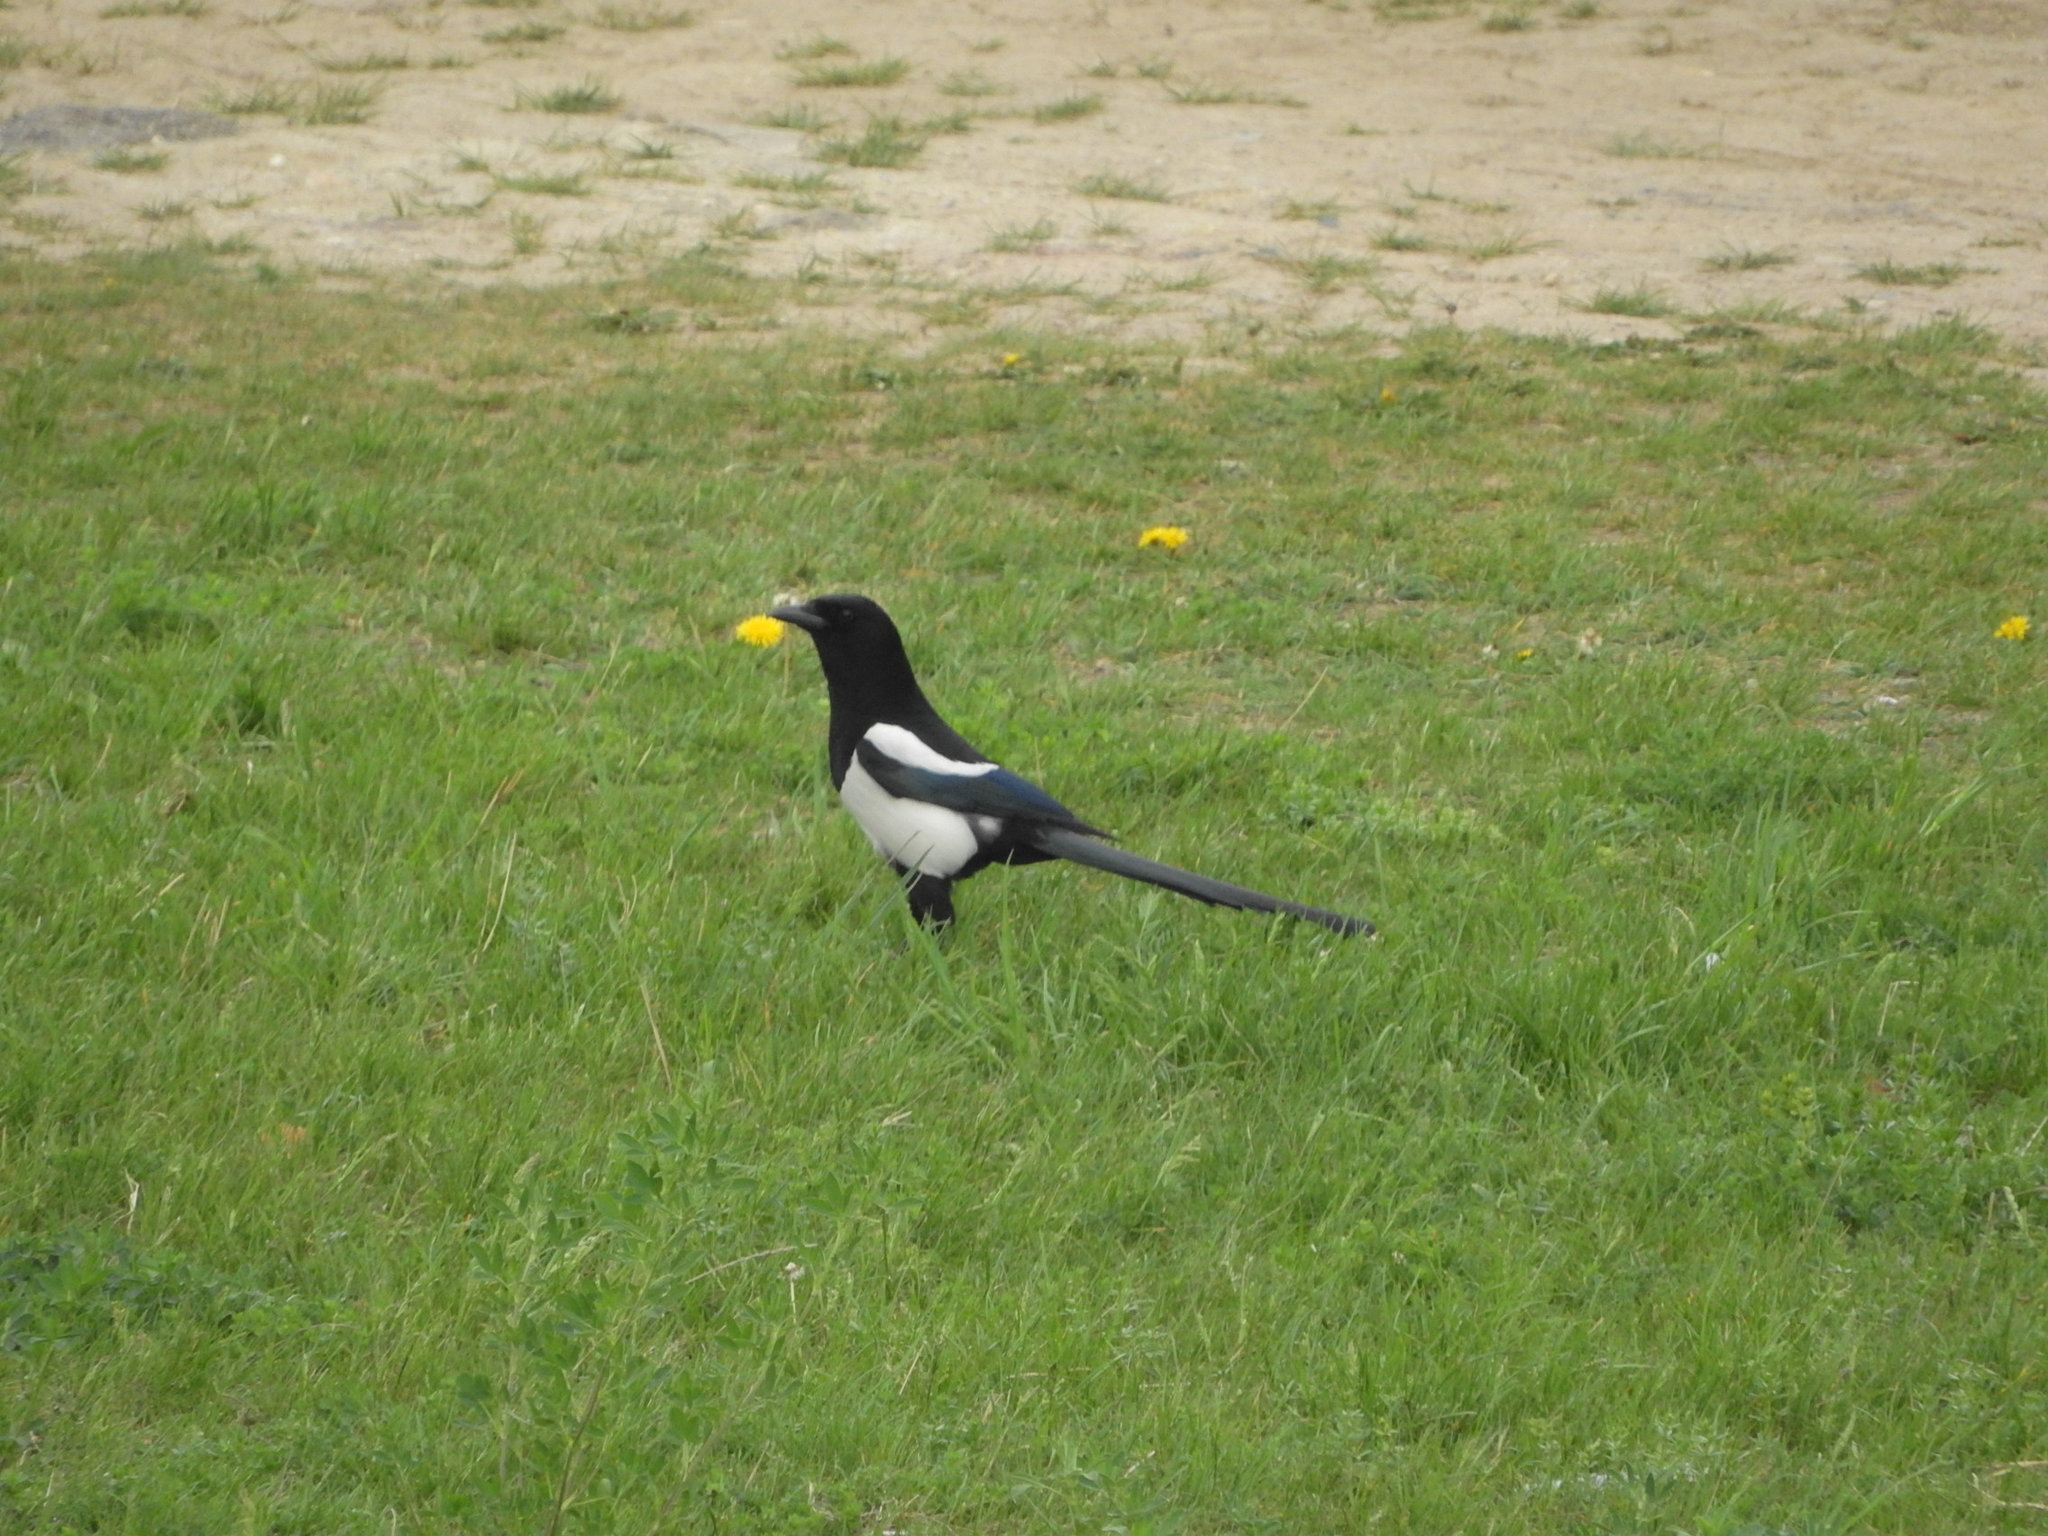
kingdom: Animalia
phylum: Chordata
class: Aves
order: Passeriformes
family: Corvidae
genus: Pica
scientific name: Pica pica
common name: Eurasian magpie
